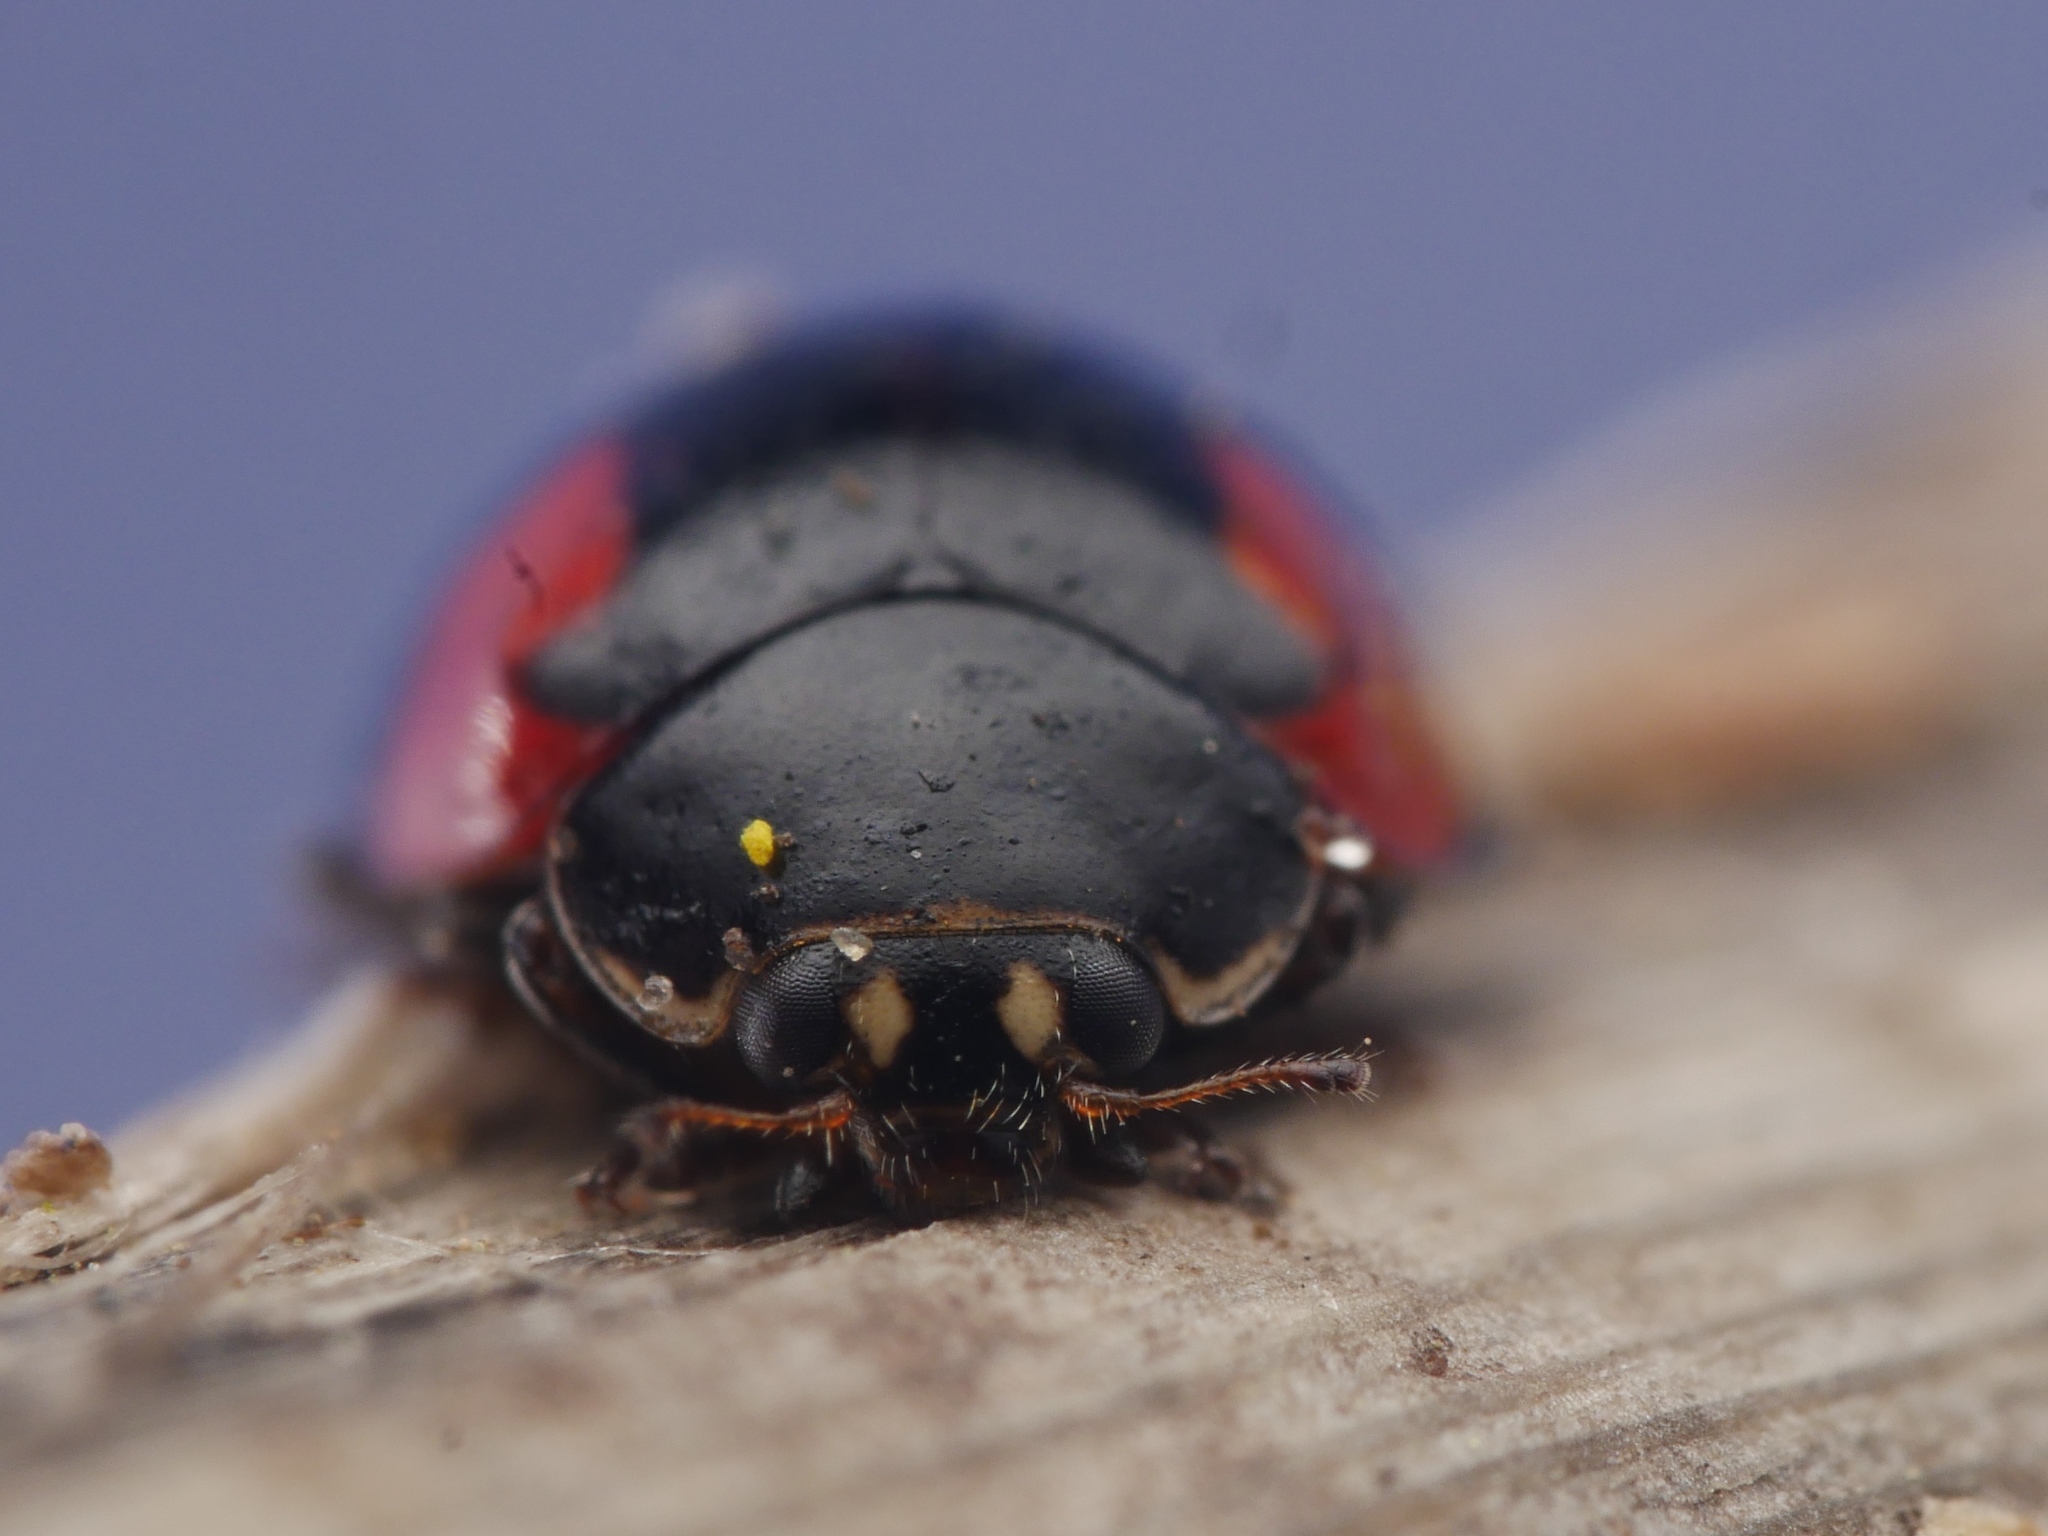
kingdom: Animalia
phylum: Arthropoda
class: Insecta
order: Coleoptera
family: Coccinellidae
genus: Adalia
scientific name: Adalia bipunctata
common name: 2-spot ladybird
